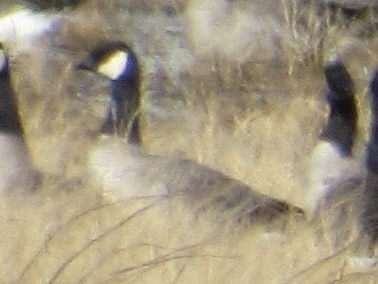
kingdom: Animalia
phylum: Chordata
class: Aves
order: Anseriformes
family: Anatidae
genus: Branta
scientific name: Branta hutchinsii
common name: Cackling goose
